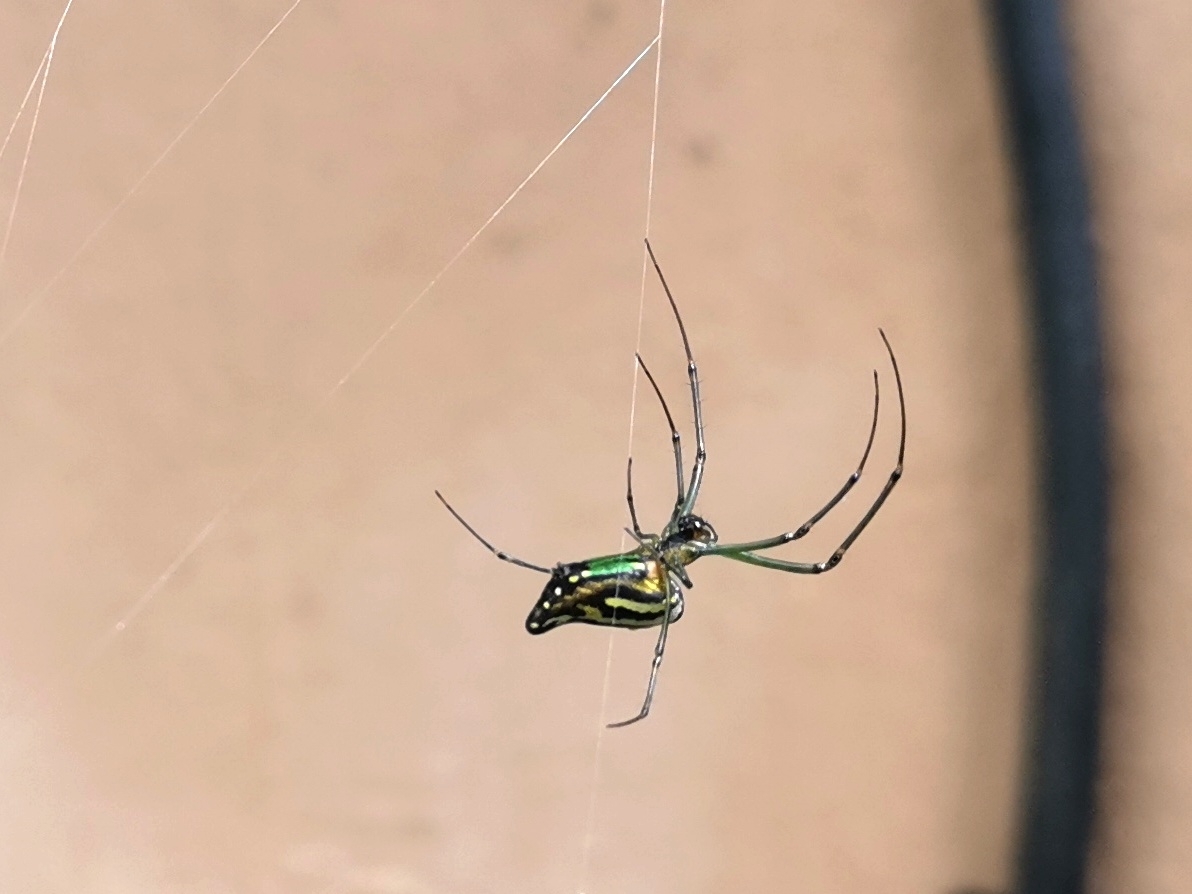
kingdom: Animalia
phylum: Arthropoda
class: Arachnida
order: Araneae
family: Tetragnathidae
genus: Leucauge
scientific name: Leucauge decorata
